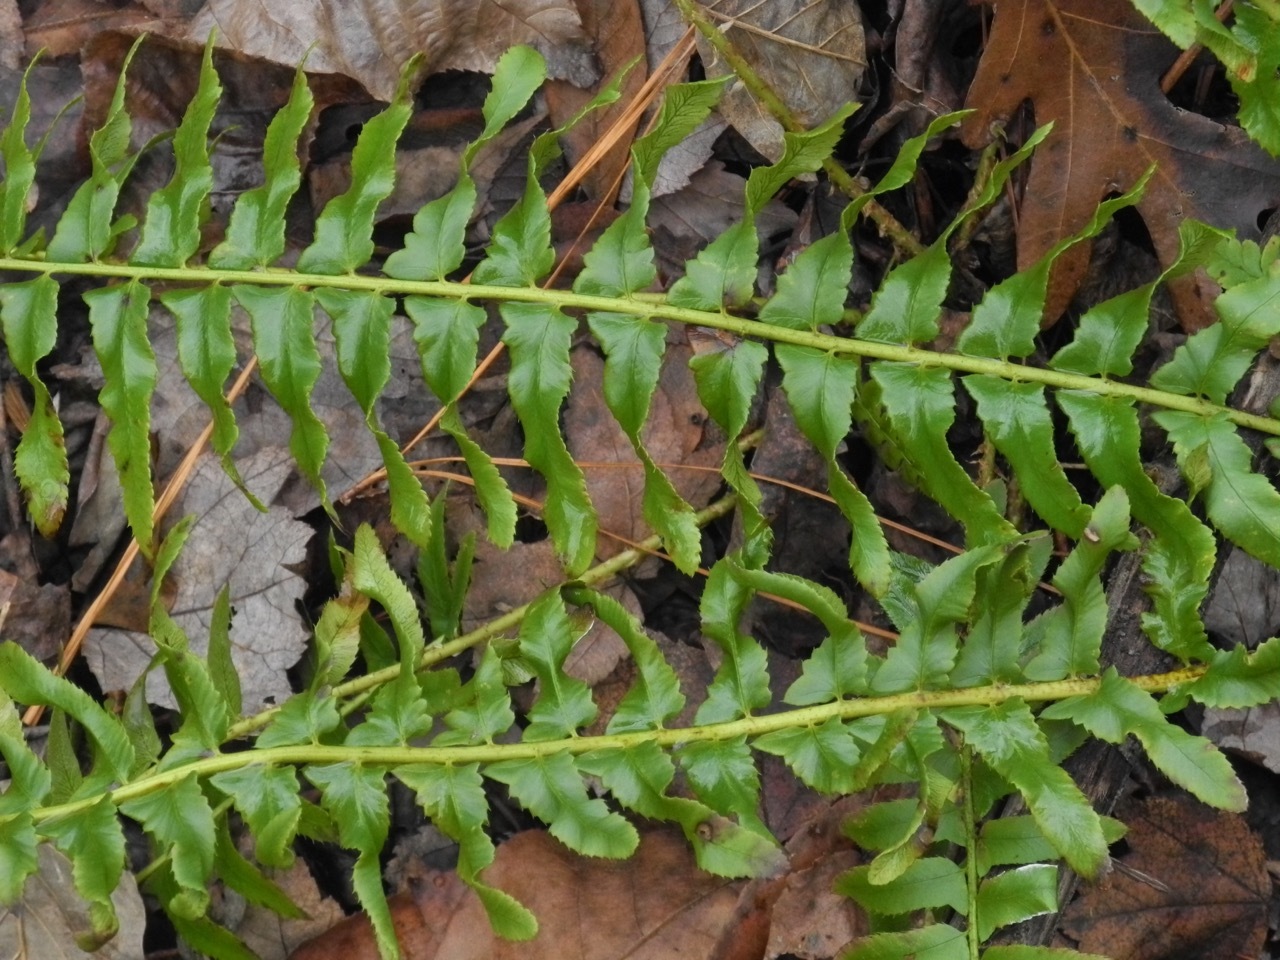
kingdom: Plantae
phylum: Tracheophyta
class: Polypodiopsida
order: Polypodiales
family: Dryopteridaceae
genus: Polystichum
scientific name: Polystichum acrostichoides
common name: Christmas fern
